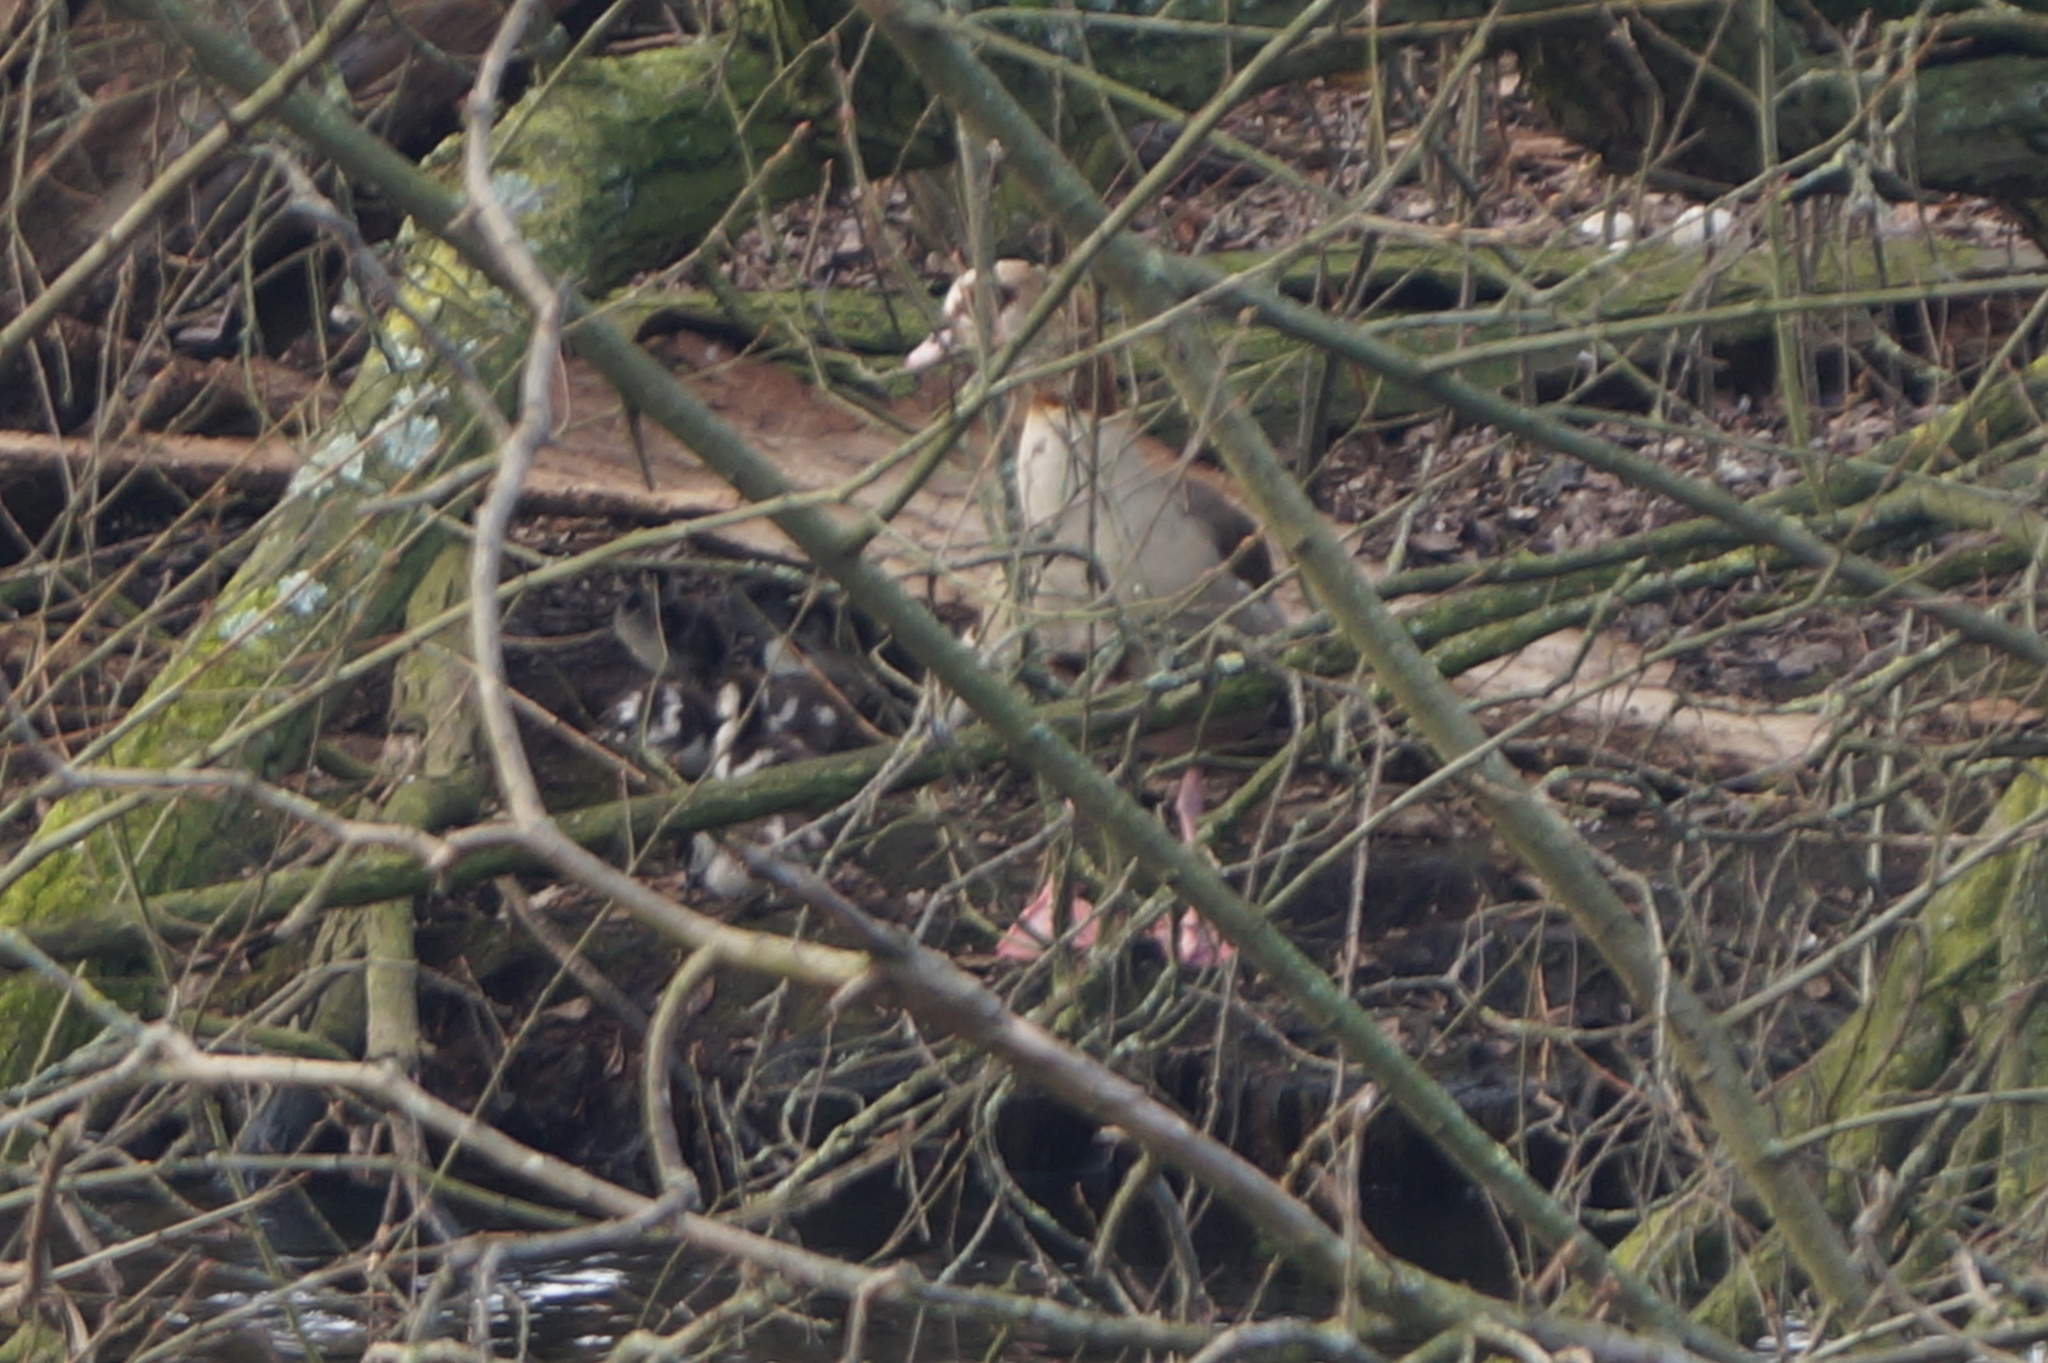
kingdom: Animalia
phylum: Chordata
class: Aves
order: Anseriformes
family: Anatidae
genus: Alopochen
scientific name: Alopochen aegyptiaca
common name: Egyptian goose
